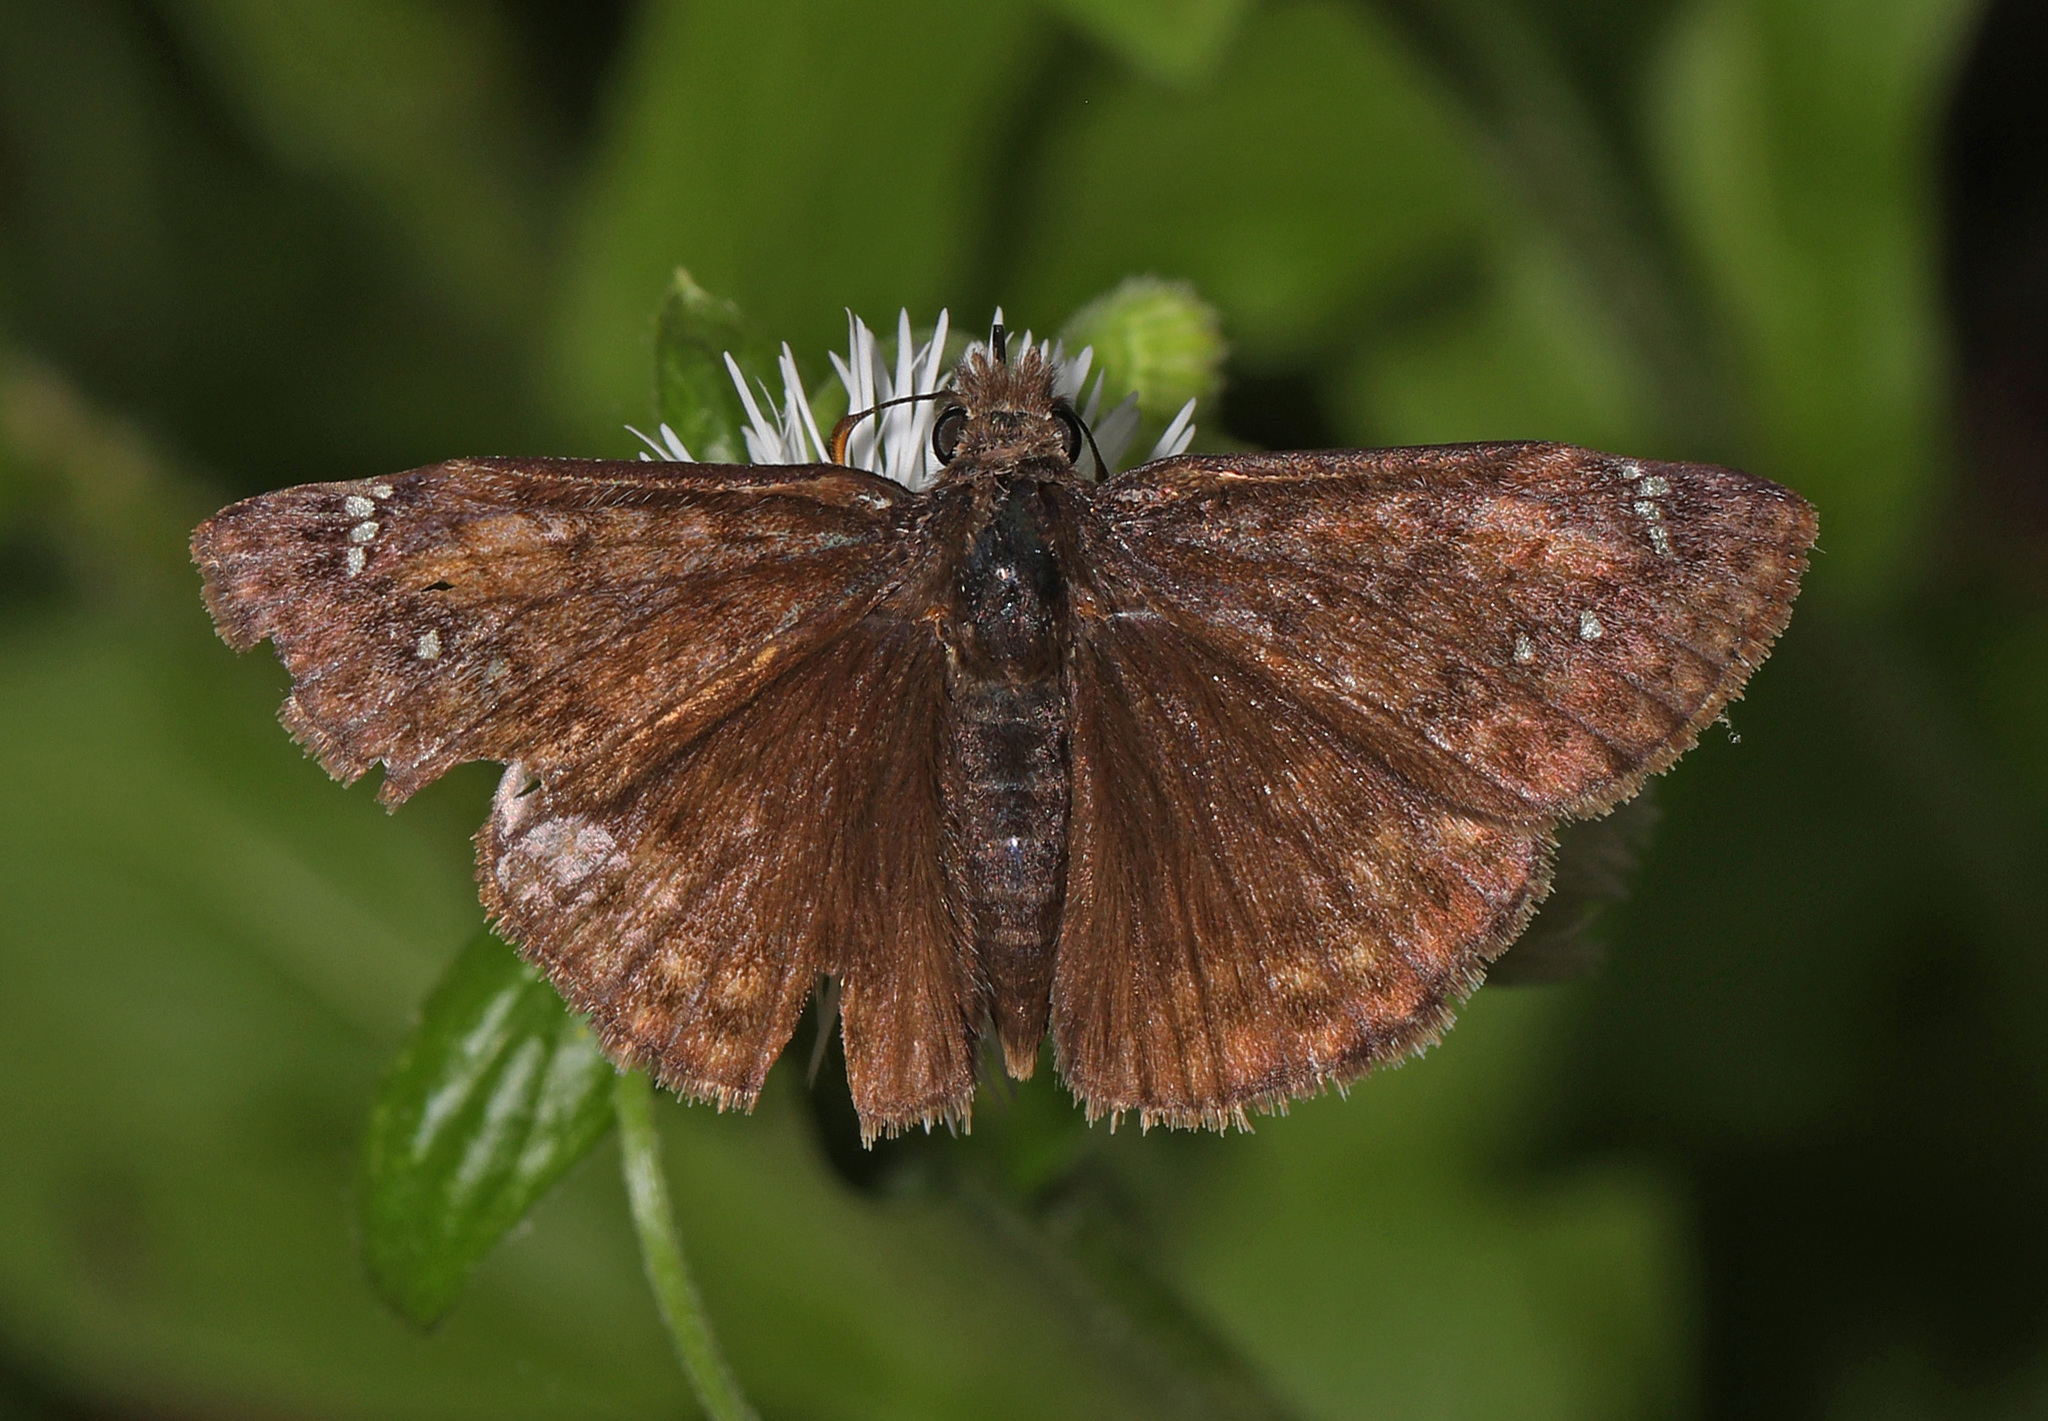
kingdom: Animalia
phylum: Arthropoda
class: Insecta
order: Lepidoptera
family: Hesperiidae
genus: Erynnis
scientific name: Erynnis juvenalis
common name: Juvenal's duskywing
